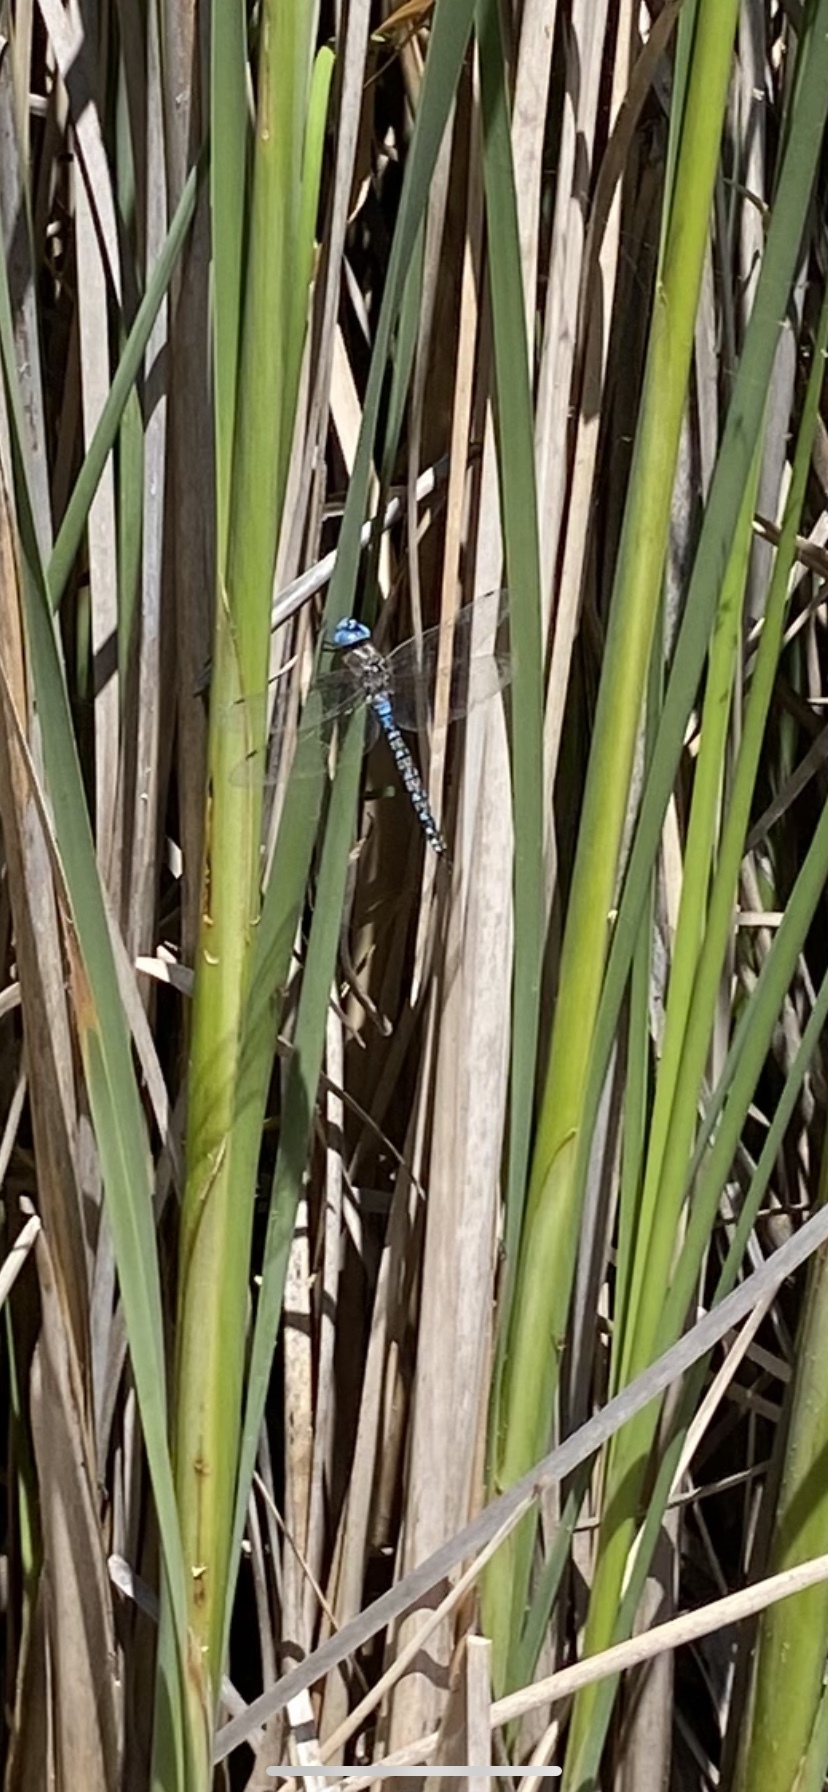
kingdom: Animalia
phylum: Arthropoda
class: Insecta
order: Odonata
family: Aeshnidae
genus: Rhionaeschna
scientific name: Rhionaeschna multicolor
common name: Blue-eyed darner
